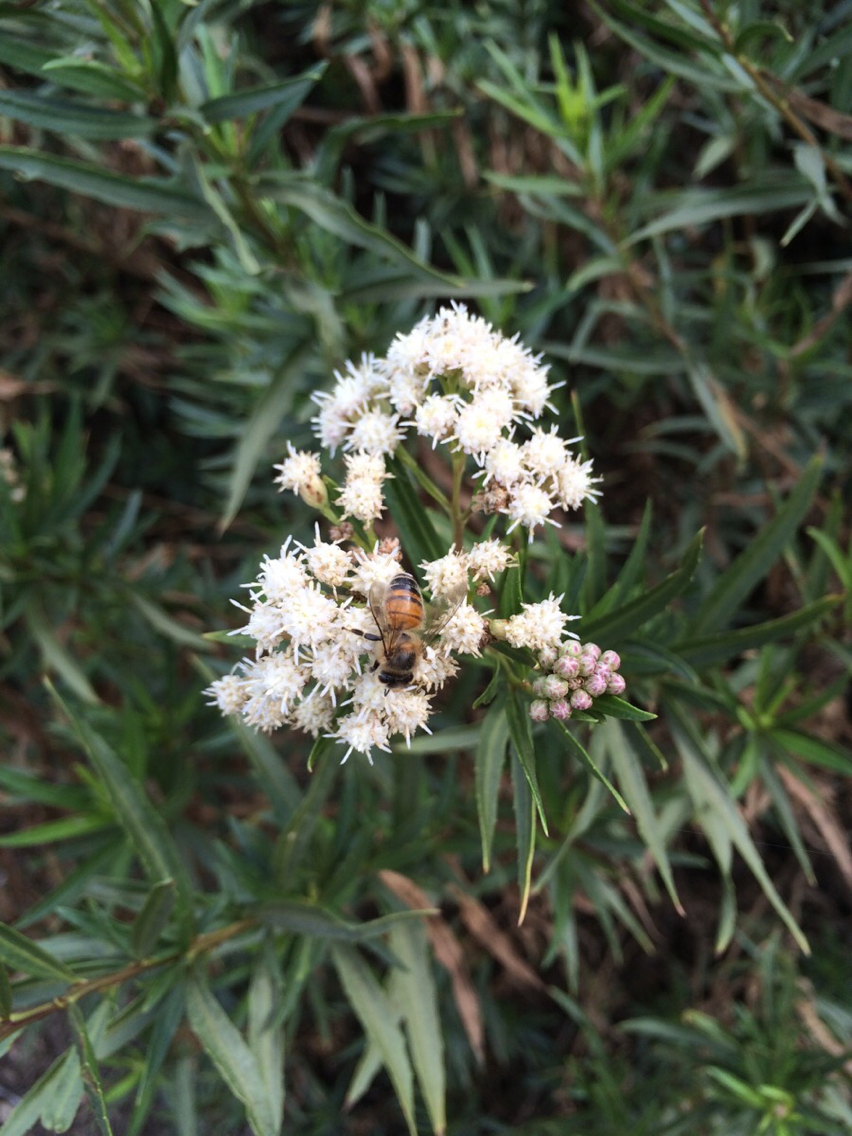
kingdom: Animalia
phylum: Arthropoda
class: Insecta
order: Hymenoptera
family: Apidae
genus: Apis
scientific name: Apis mellifera
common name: Honey bee
